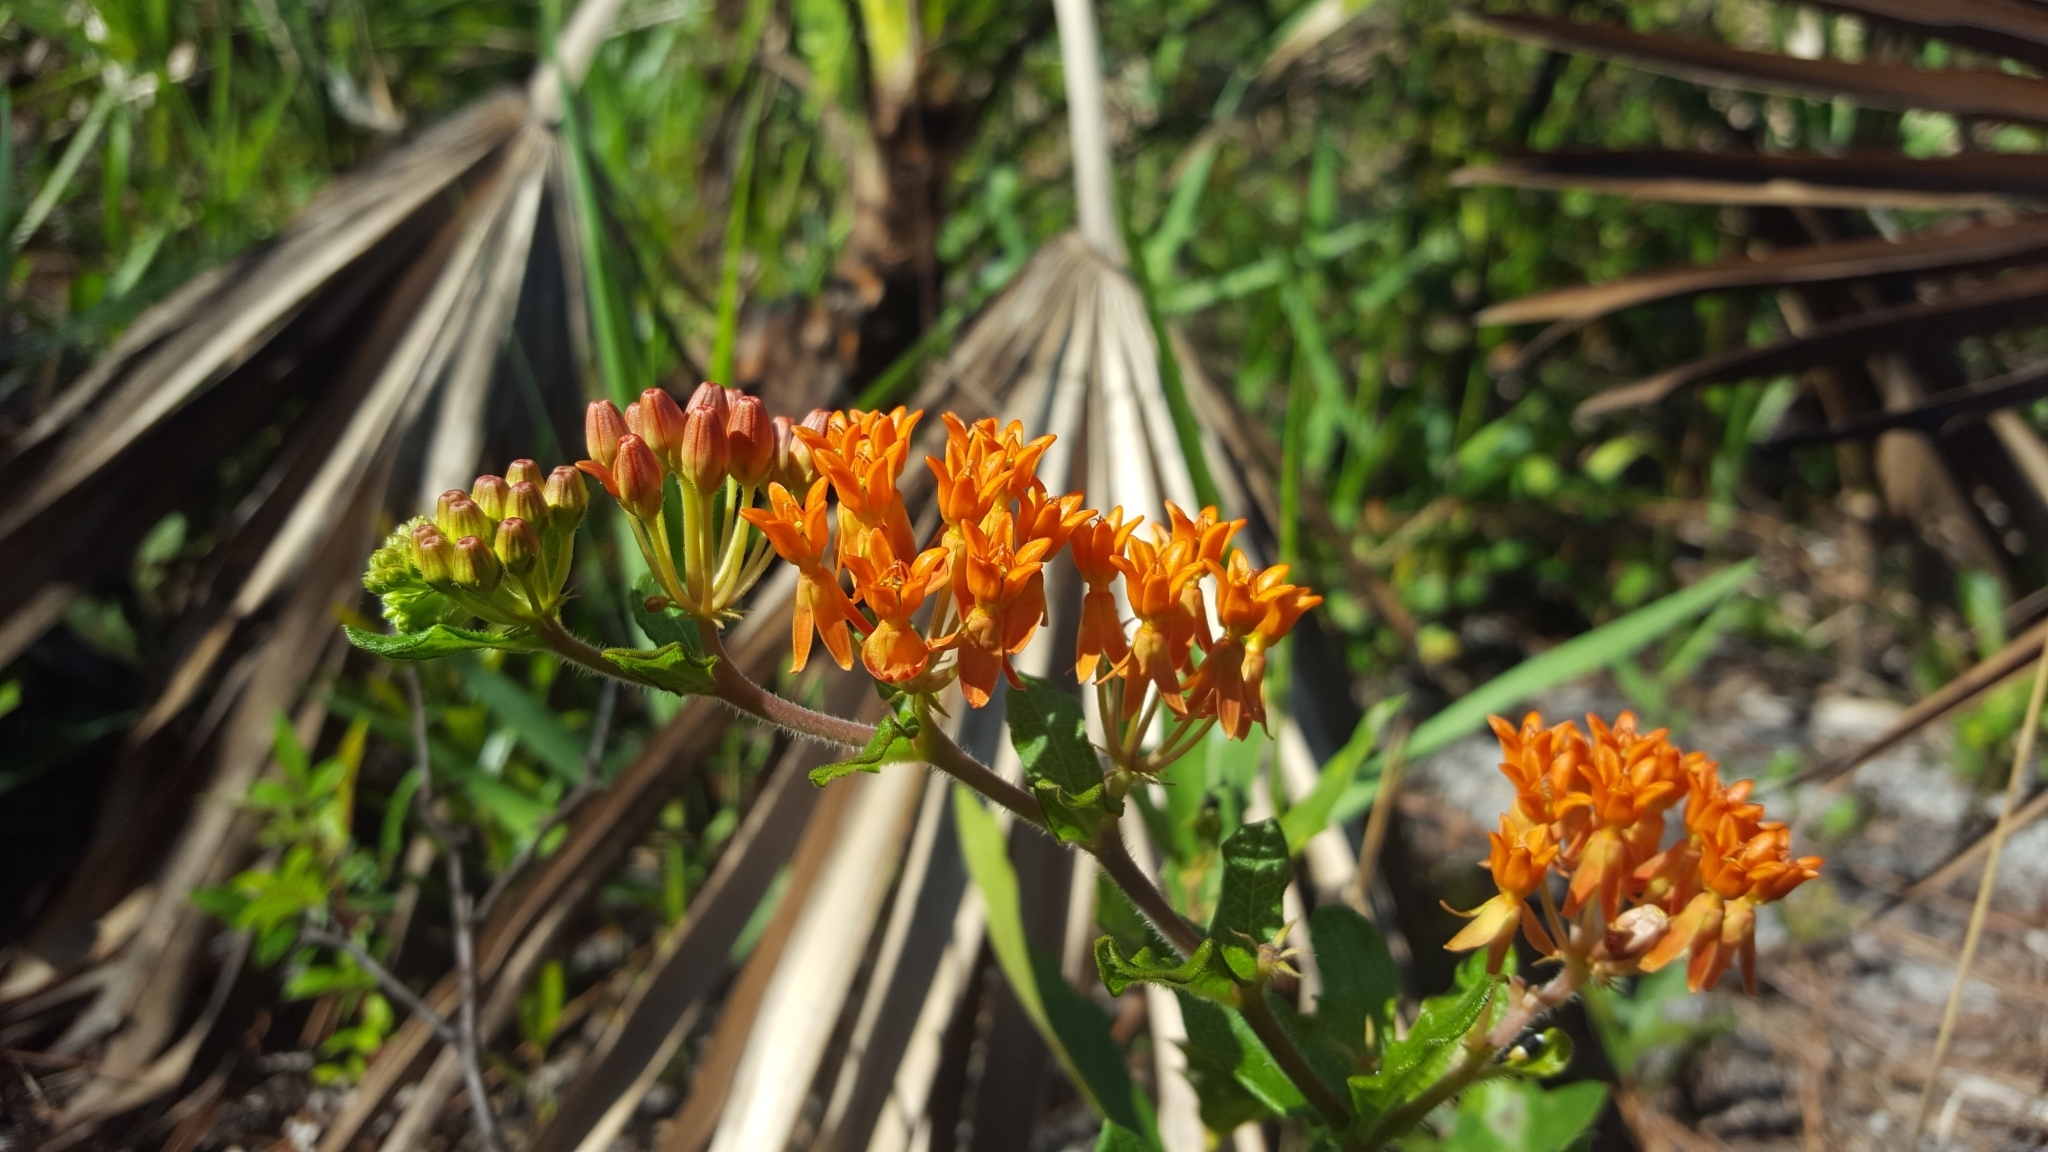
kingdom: Plantae
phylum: Tracheophyta
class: Magnoliopsida
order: Gentianales
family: Apocynaceae
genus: Asclepias
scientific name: Asclepias tuberosa
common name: Butterfly milkweed
